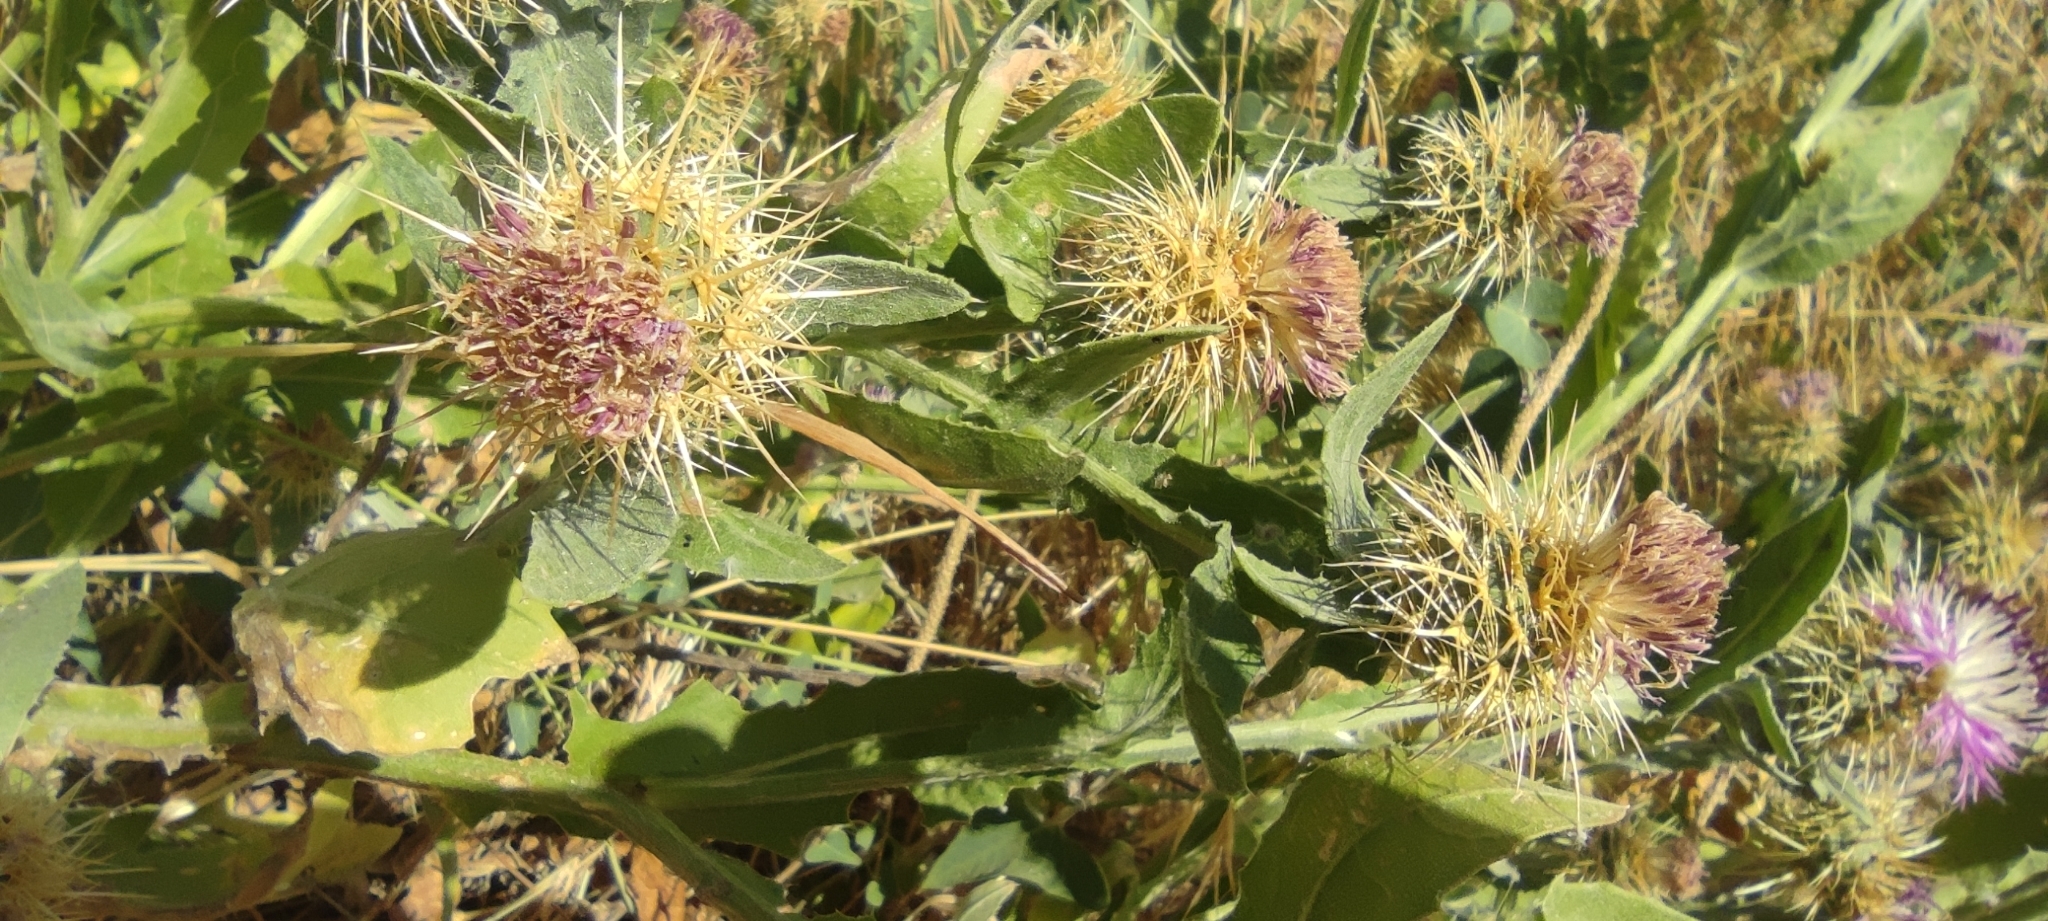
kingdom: Plantae
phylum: Tracheophyta
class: Magnoliopsida
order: Asterales
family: Asteraceae
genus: Centaurea
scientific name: Centaurea seridis
